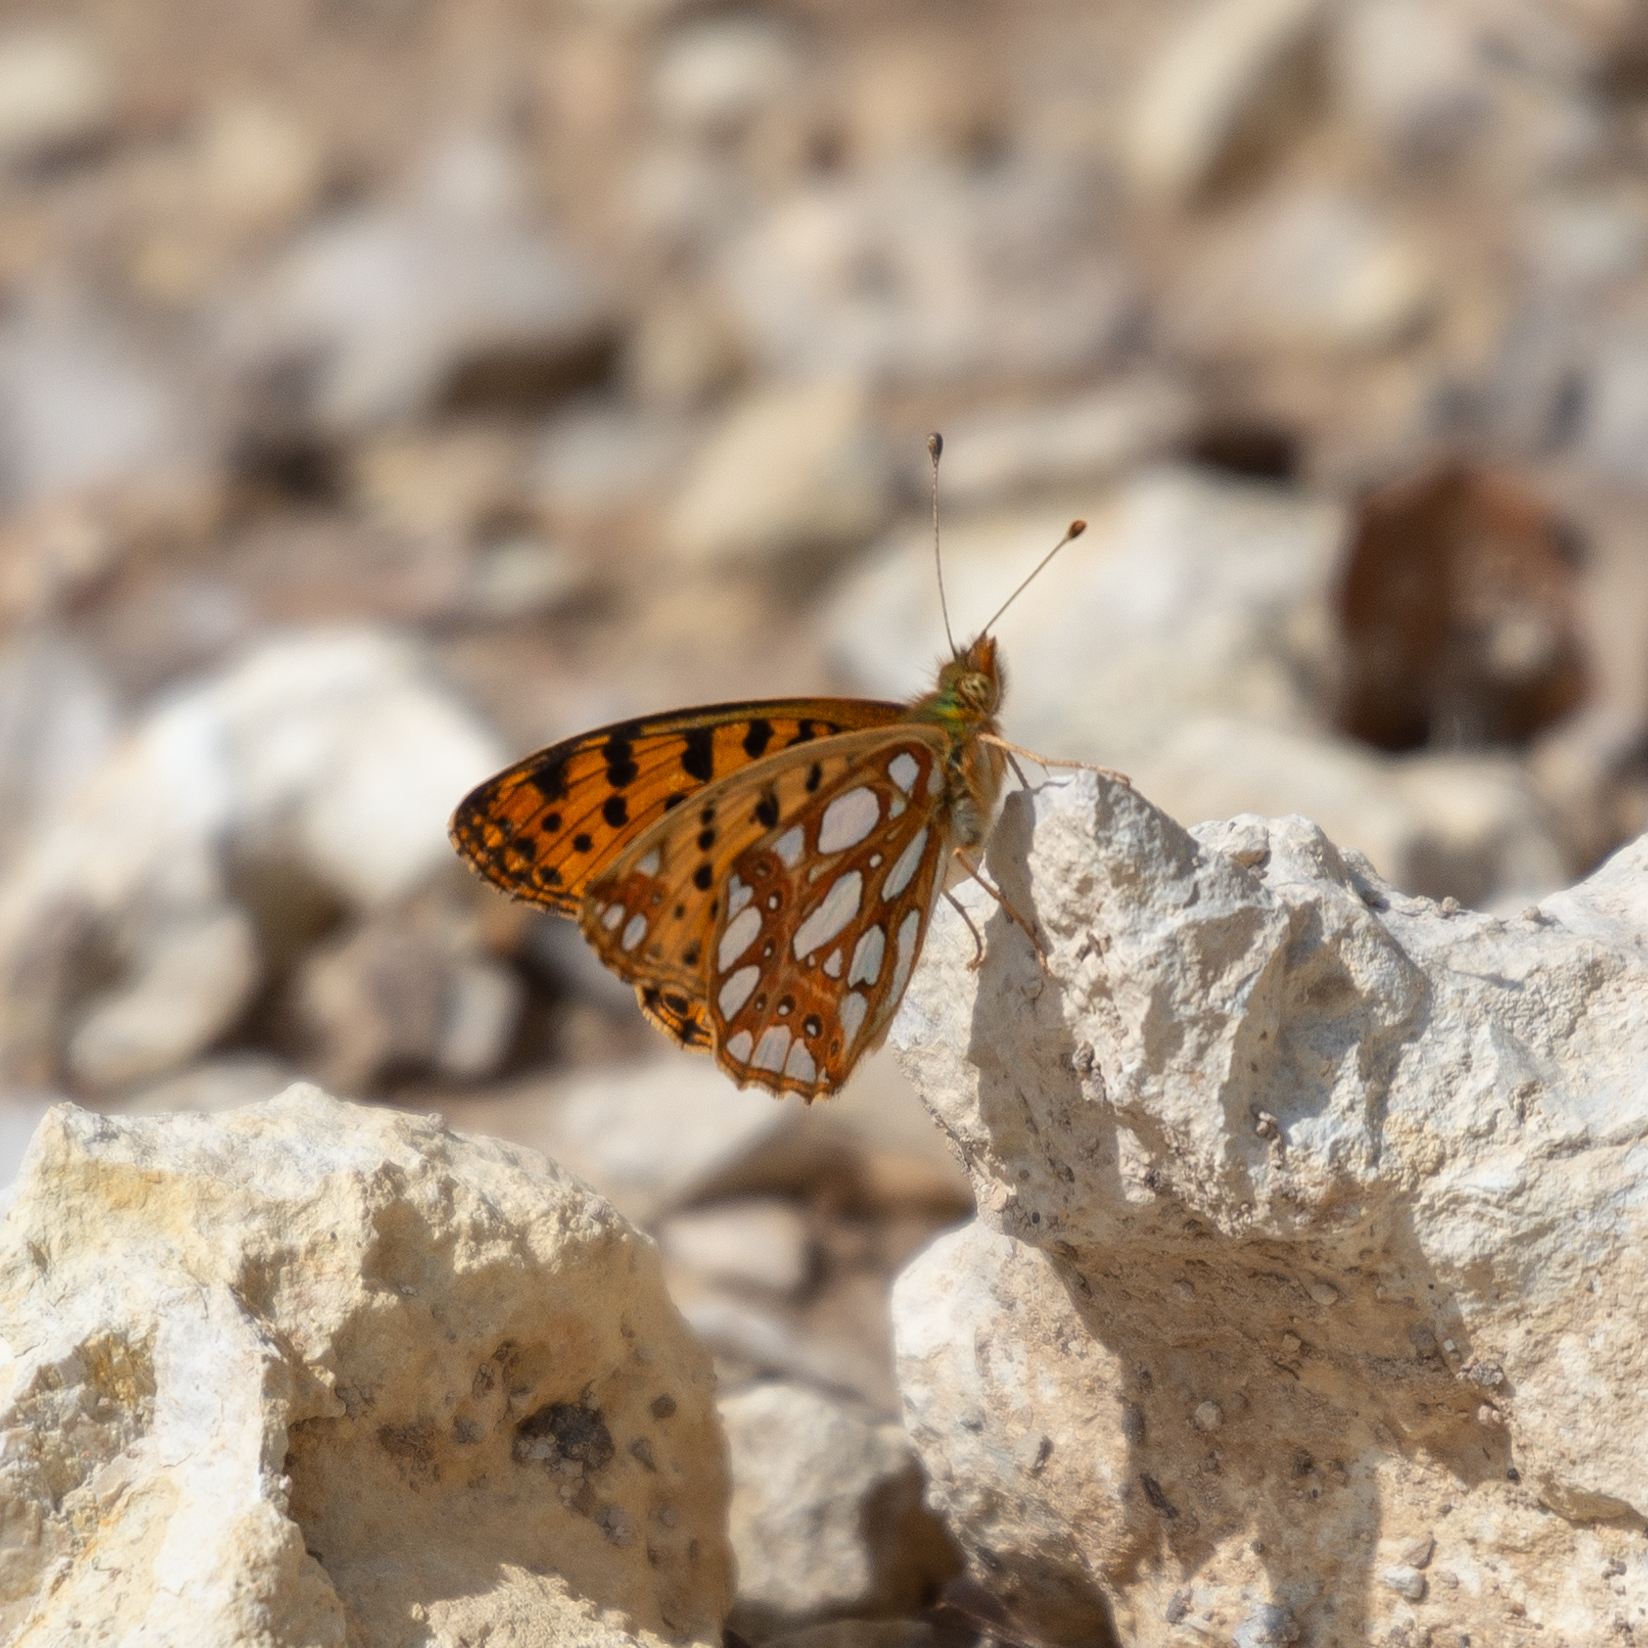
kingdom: Animalia
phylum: Arthropoda
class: Insecta
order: Lepidoptera
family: Nymphalidae
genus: Issoria
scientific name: Issoria lathonia
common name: Queen of spain fritillary
